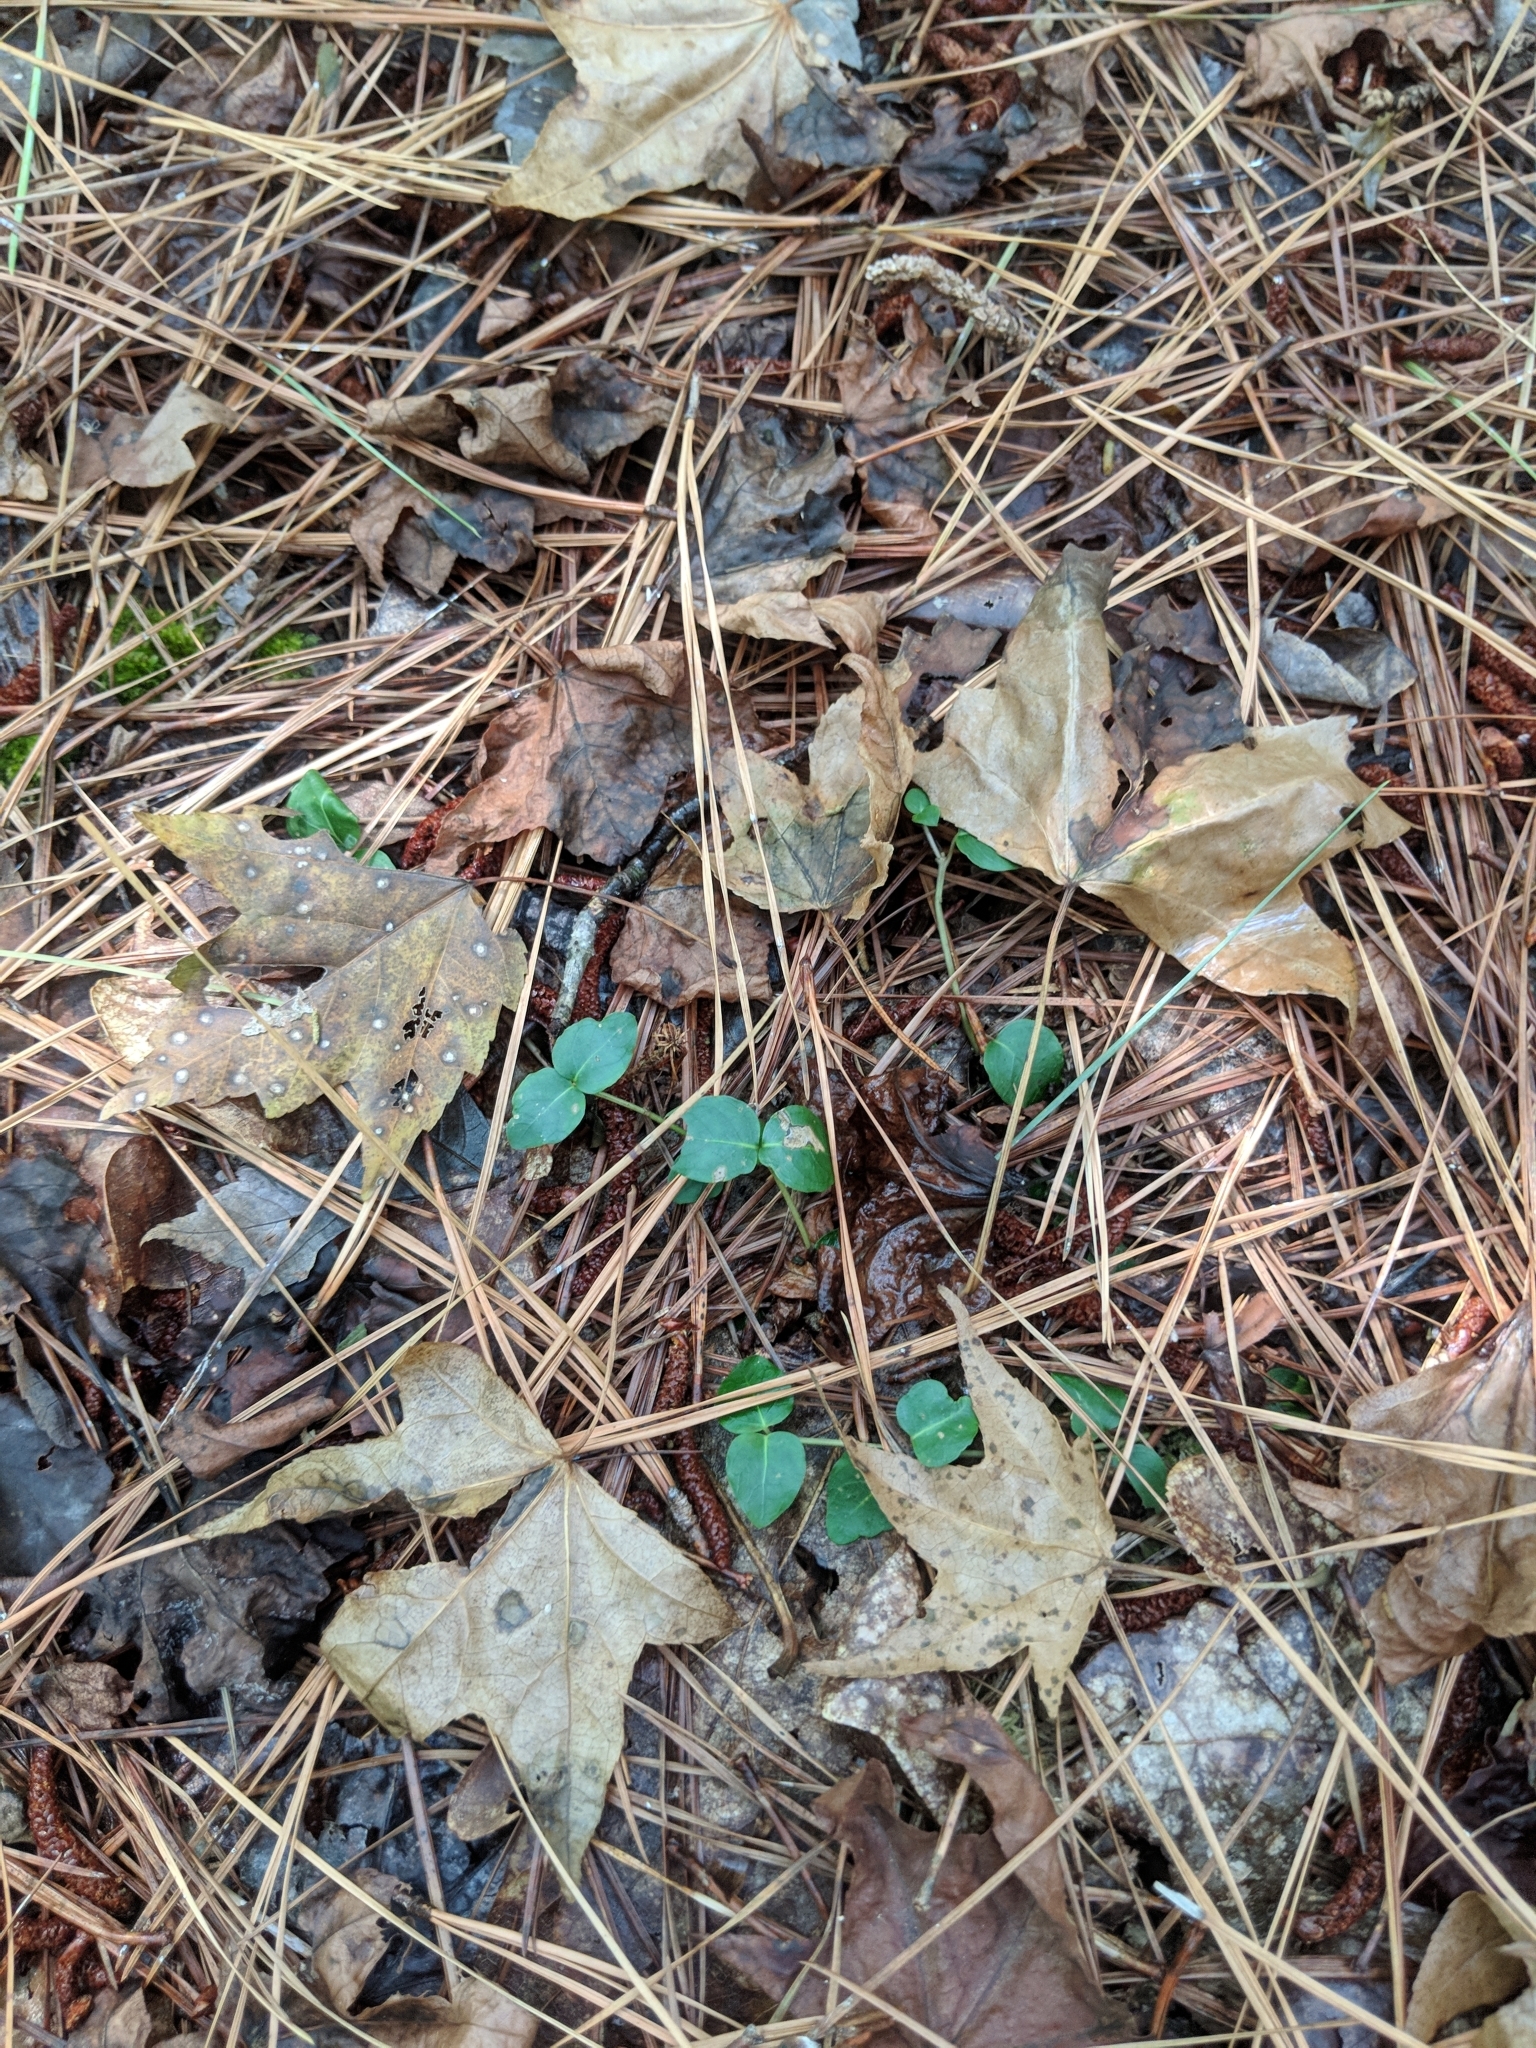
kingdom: Plantae
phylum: Tracheophyta
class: Magnoliopsida
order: Gentianales
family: Rubiaceae
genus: Mitchella
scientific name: Mitchella repens
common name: Partridge-berry
